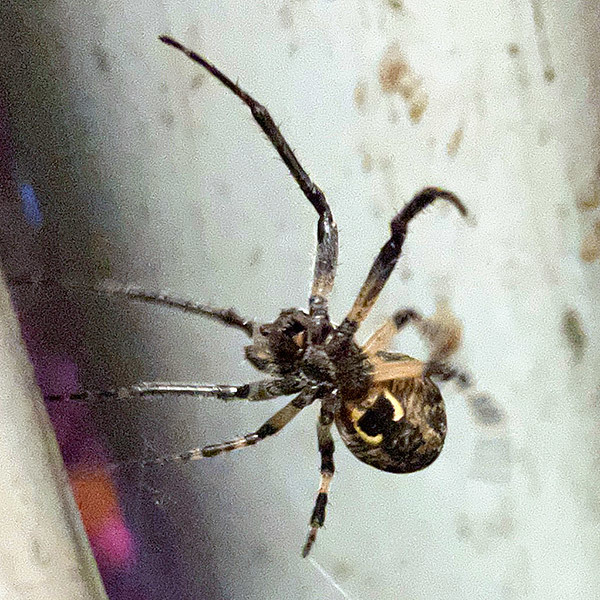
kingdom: Animalia
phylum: Arthropoda
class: Arachnida
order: Araneae
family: Araneidae
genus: Larinioides
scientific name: Larinioides sclopetarius
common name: Bridge orbweaver
